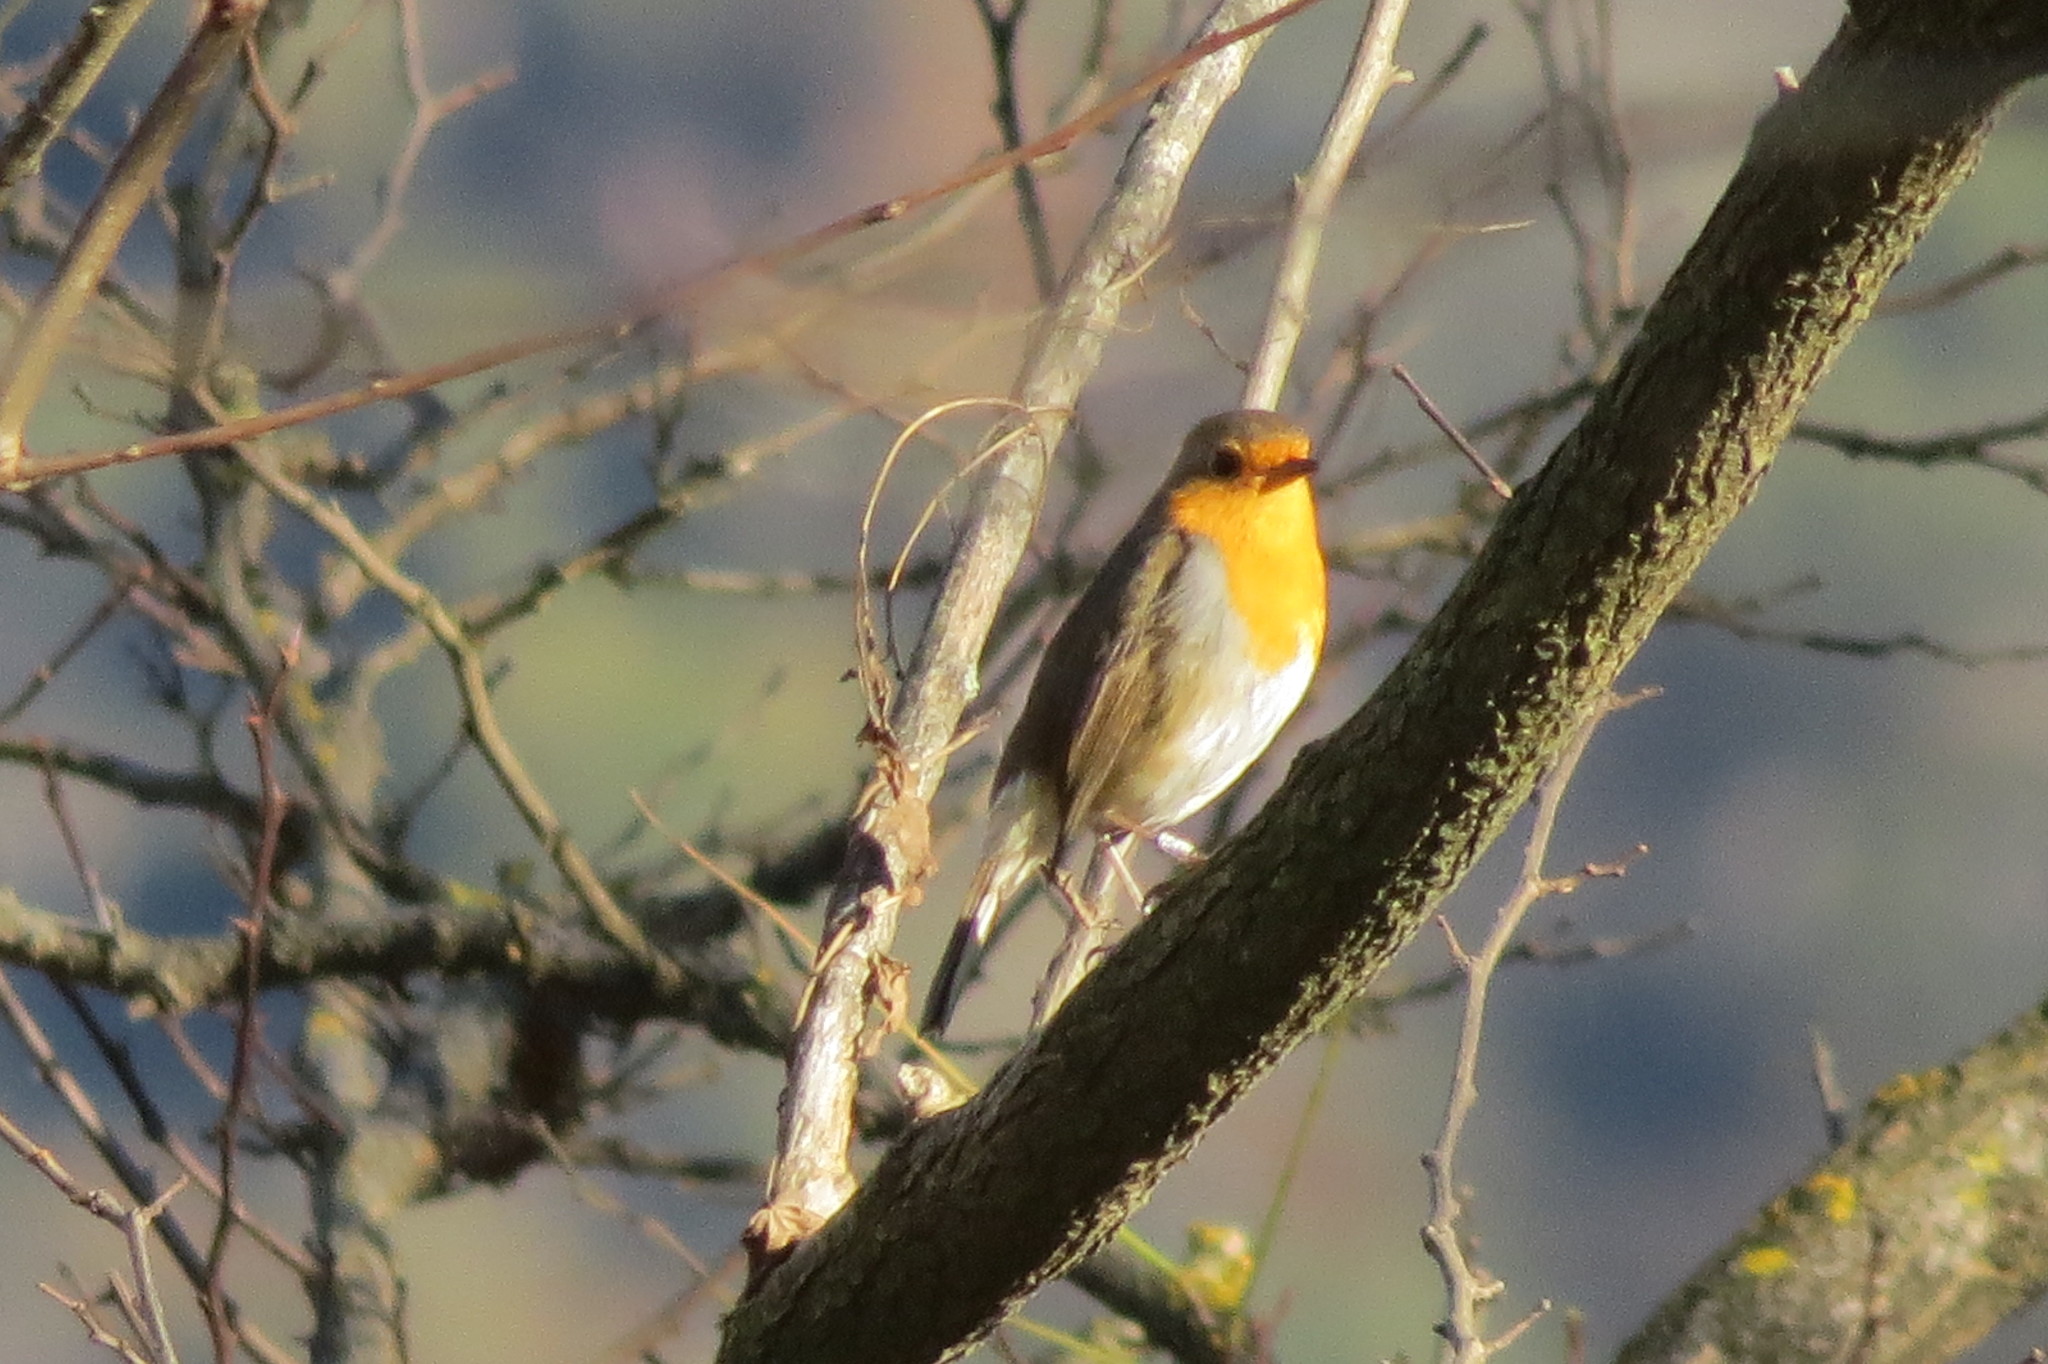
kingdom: Animalia
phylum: Chordata
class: Aves
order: Passeriformes
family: Muscicapidae
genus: Erithacus
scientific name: Erithacus rubecula
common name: European robin
